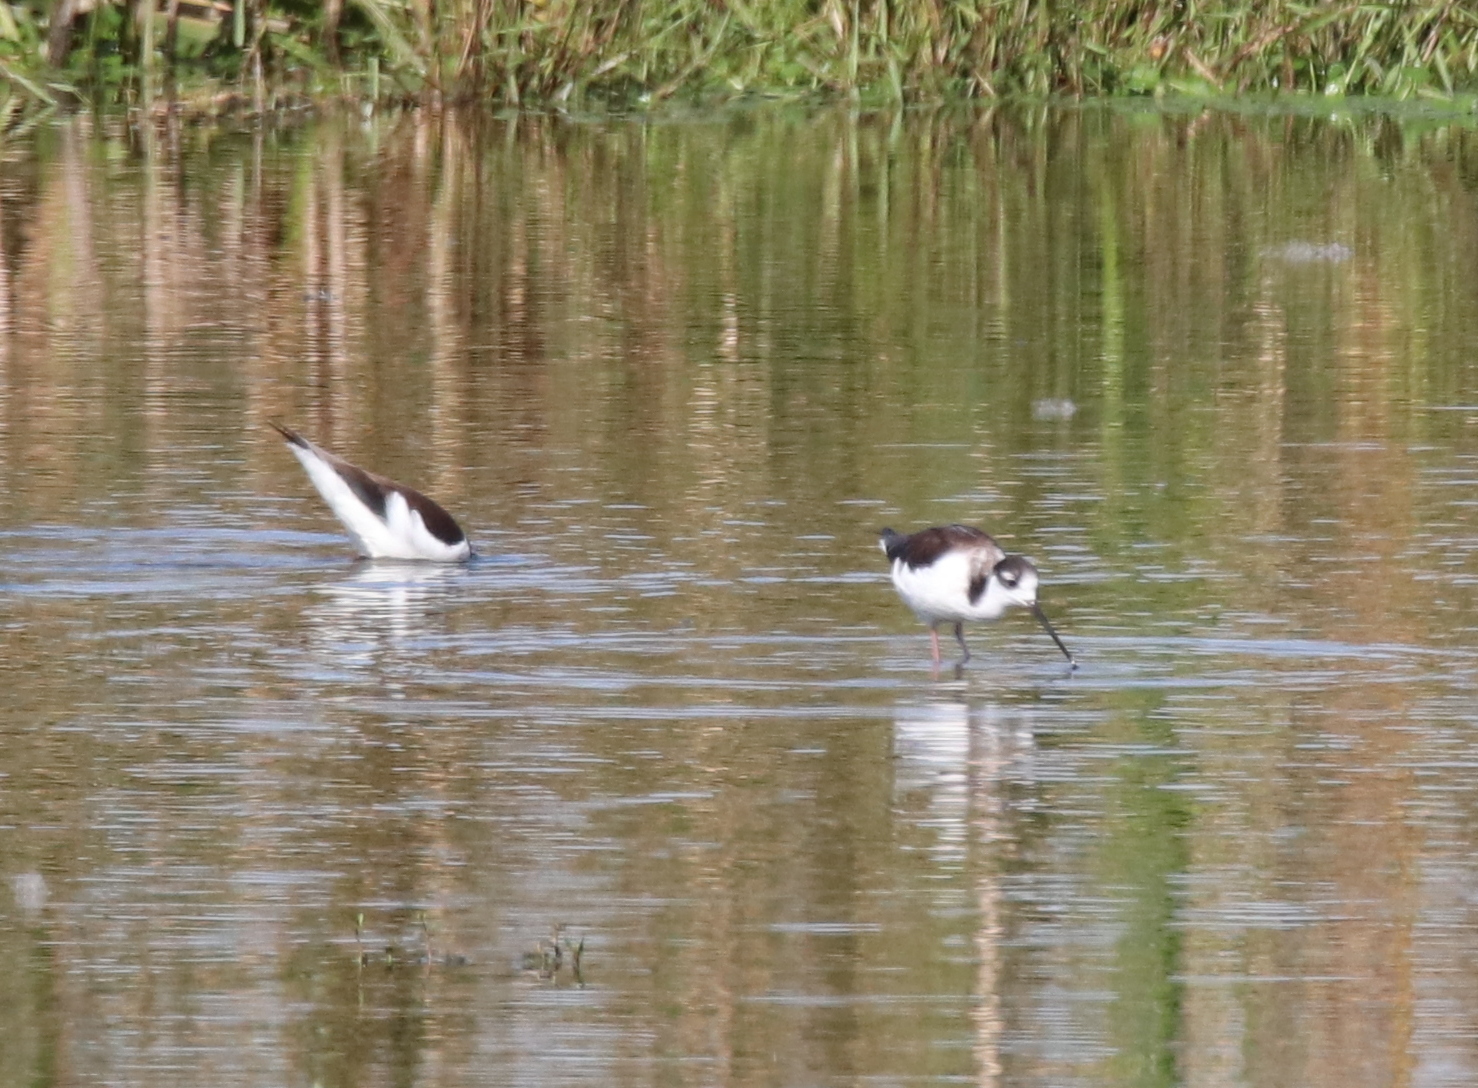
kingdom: Animalia
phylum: Chordata
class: Aves
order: Charadriiformes
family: Recurvirostridae
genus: Himantopus
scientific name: Himantopus mexicanus
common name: Black-necked stilt
